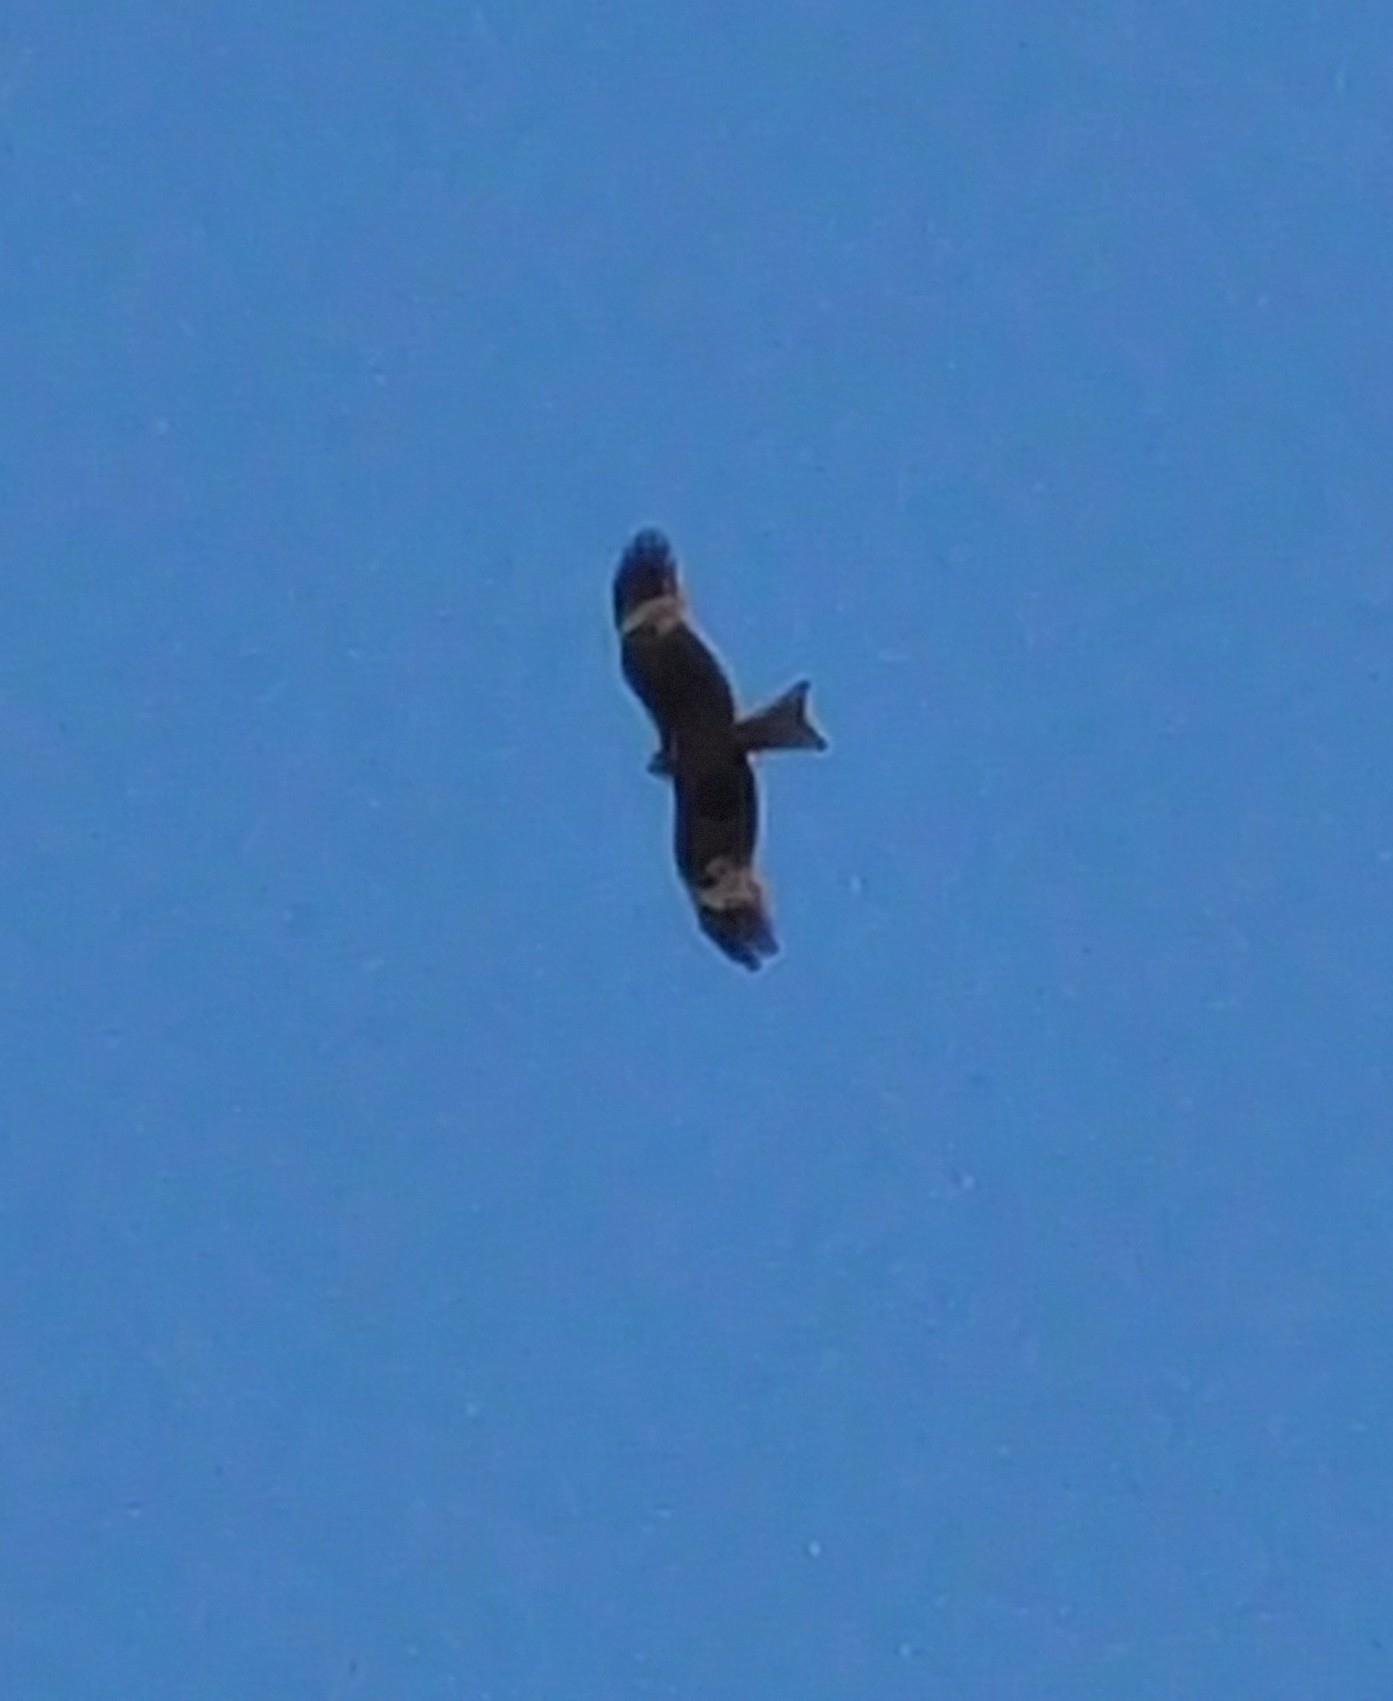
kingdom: Animalia
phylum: Chordata
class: Aves
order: Accipitriformes
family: Accipitridae
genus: Milvus
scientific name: Milvus migrans
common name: Black kite
